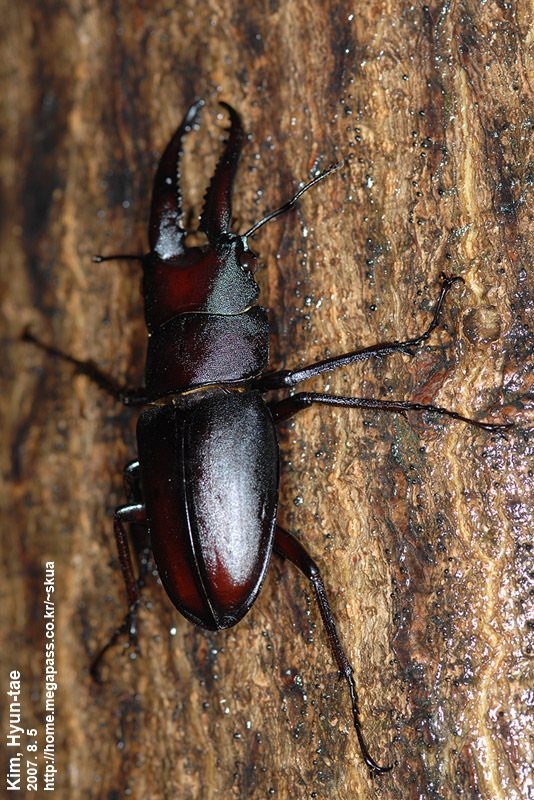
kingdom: Animalia
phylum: Arthropoda
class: Insecta
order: Coleoptera
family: Lucanidae
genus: Prosopocoilus
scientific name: Prosopocoilus inclinatus
